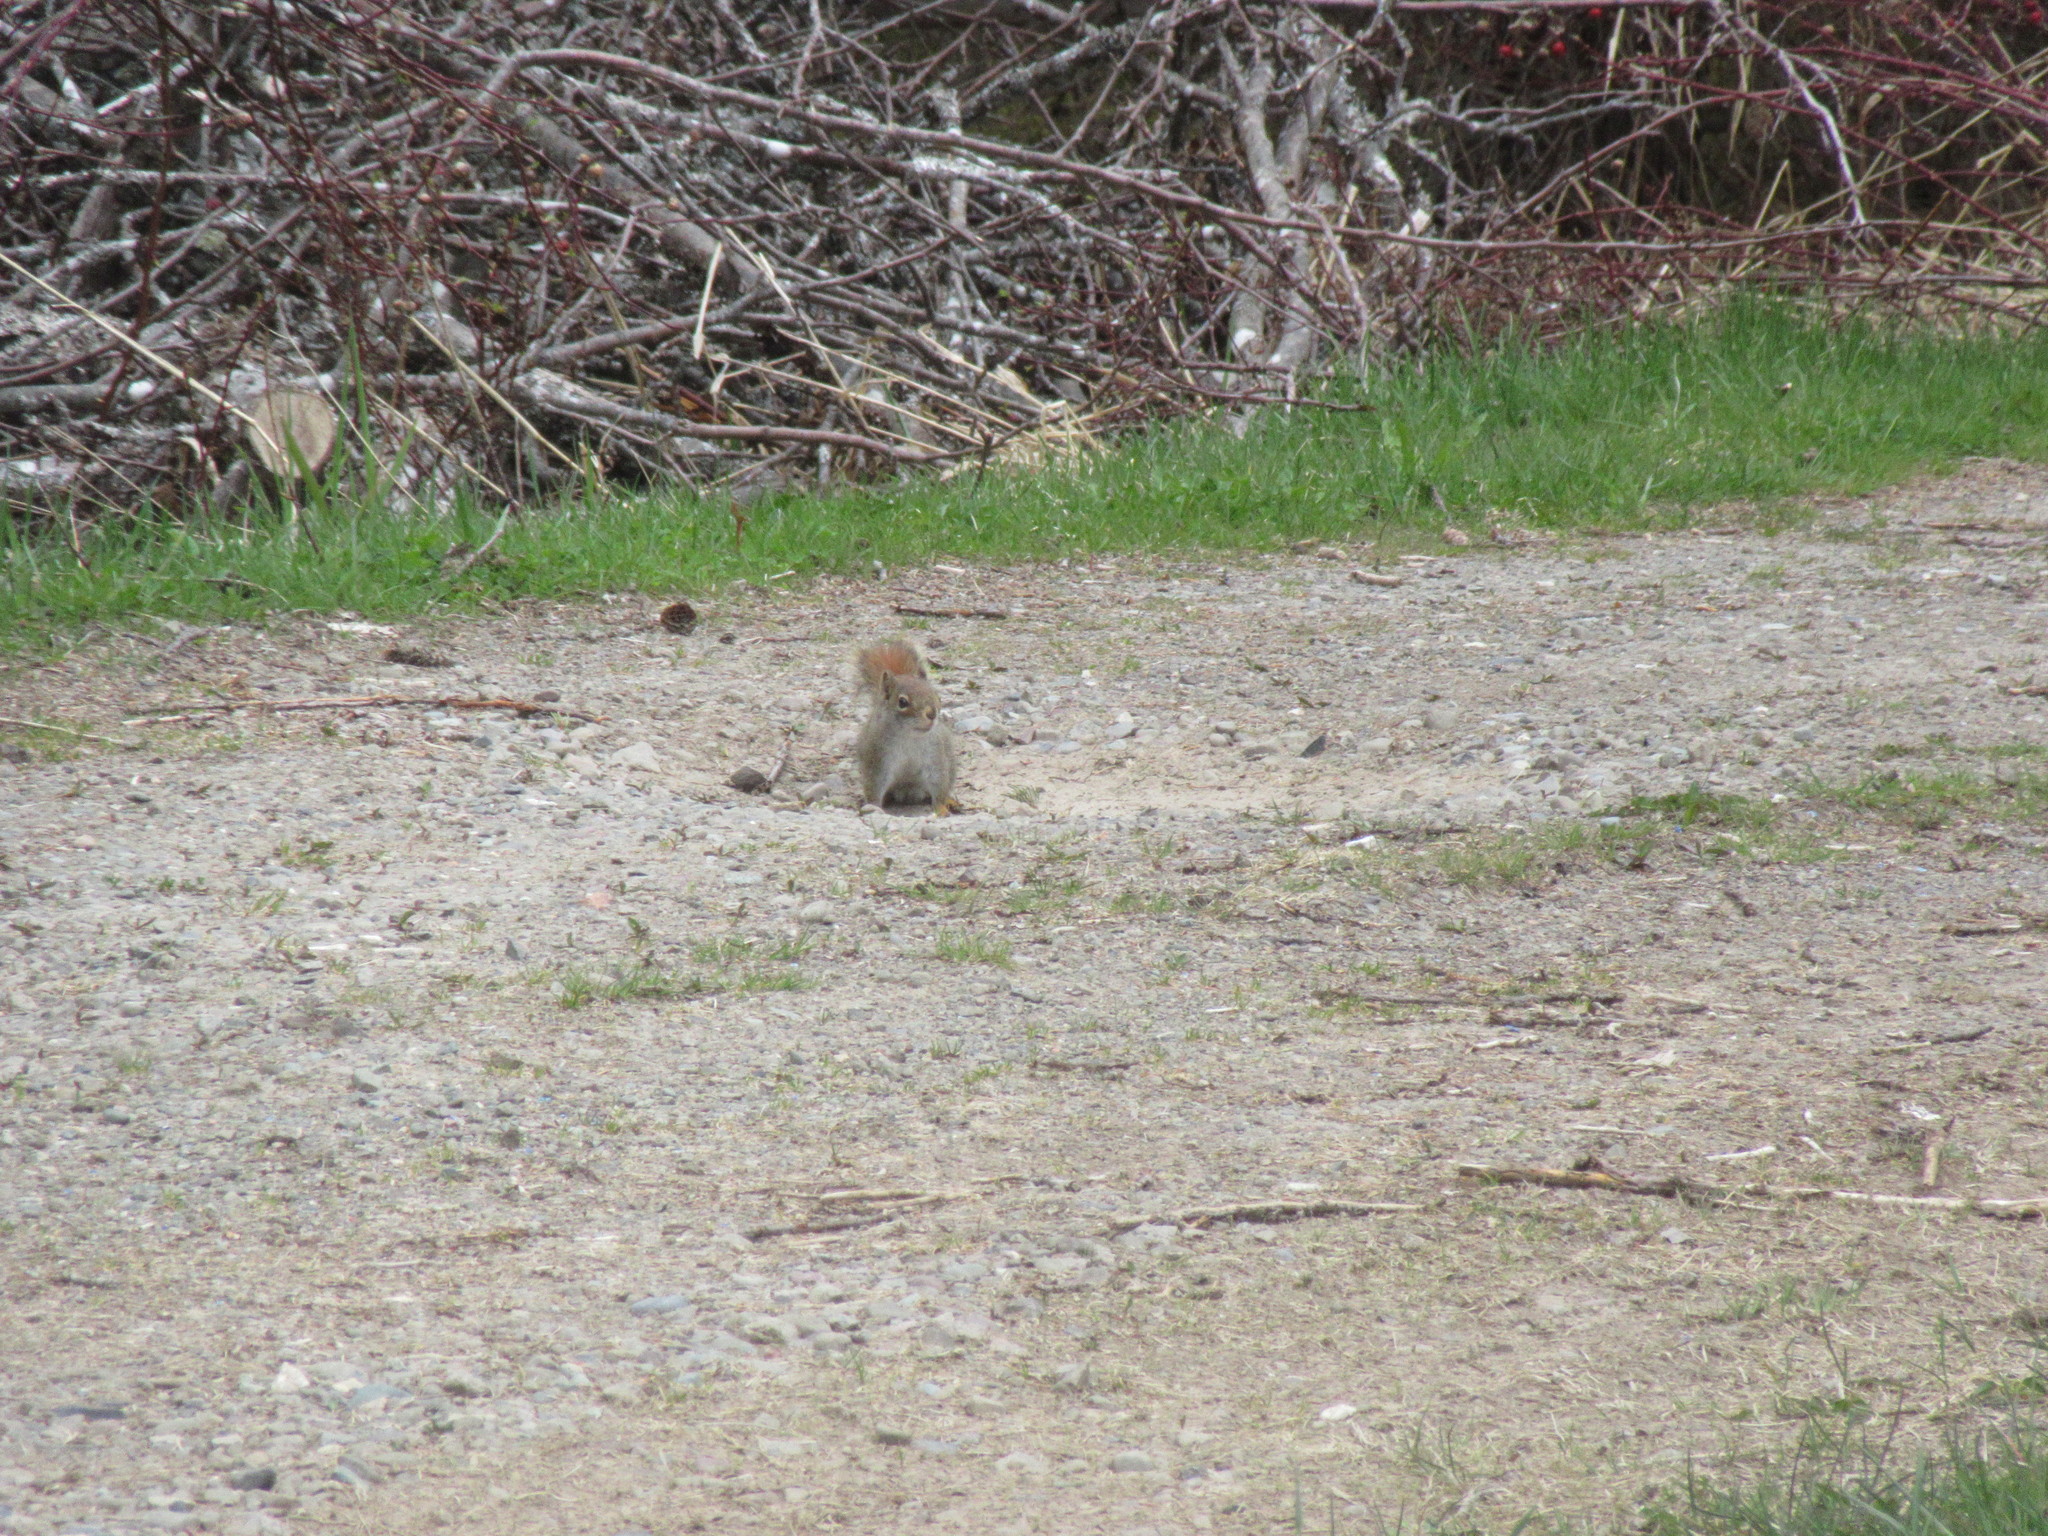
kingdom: Animalia
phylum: Chordata
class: Mammalia
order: Rodentia
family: Sciuridae
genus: Tamiasciurus
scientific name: Tamiasciurus hudsonicus
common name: Red squirrel
